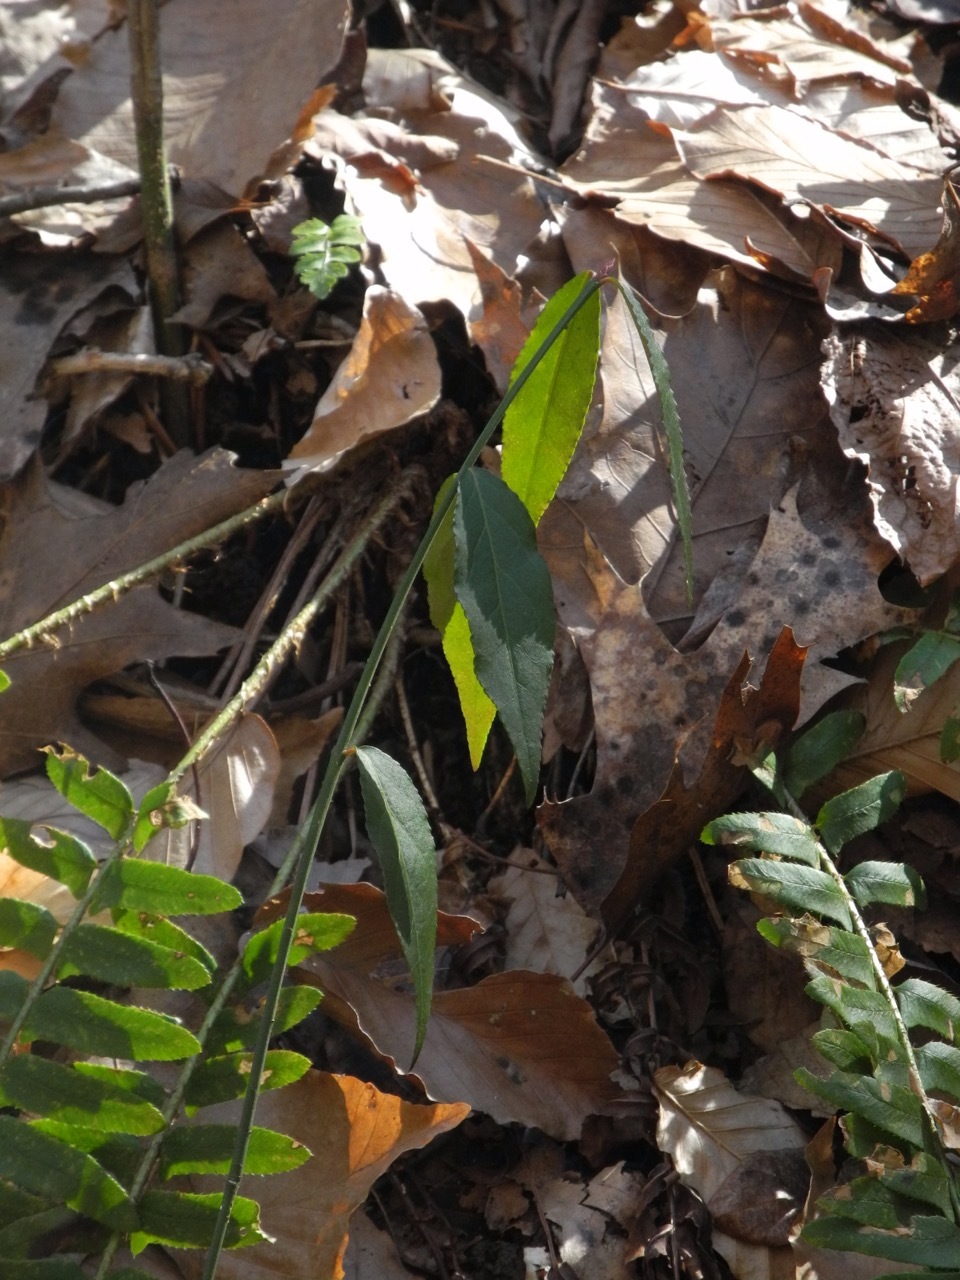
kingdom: Plantae
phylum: Tracheophyta
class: Magnoliopsida
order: Celastrales
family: Celastraceae
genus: Euonymus
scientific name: Euonymus americanus
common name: Bursting-heart
